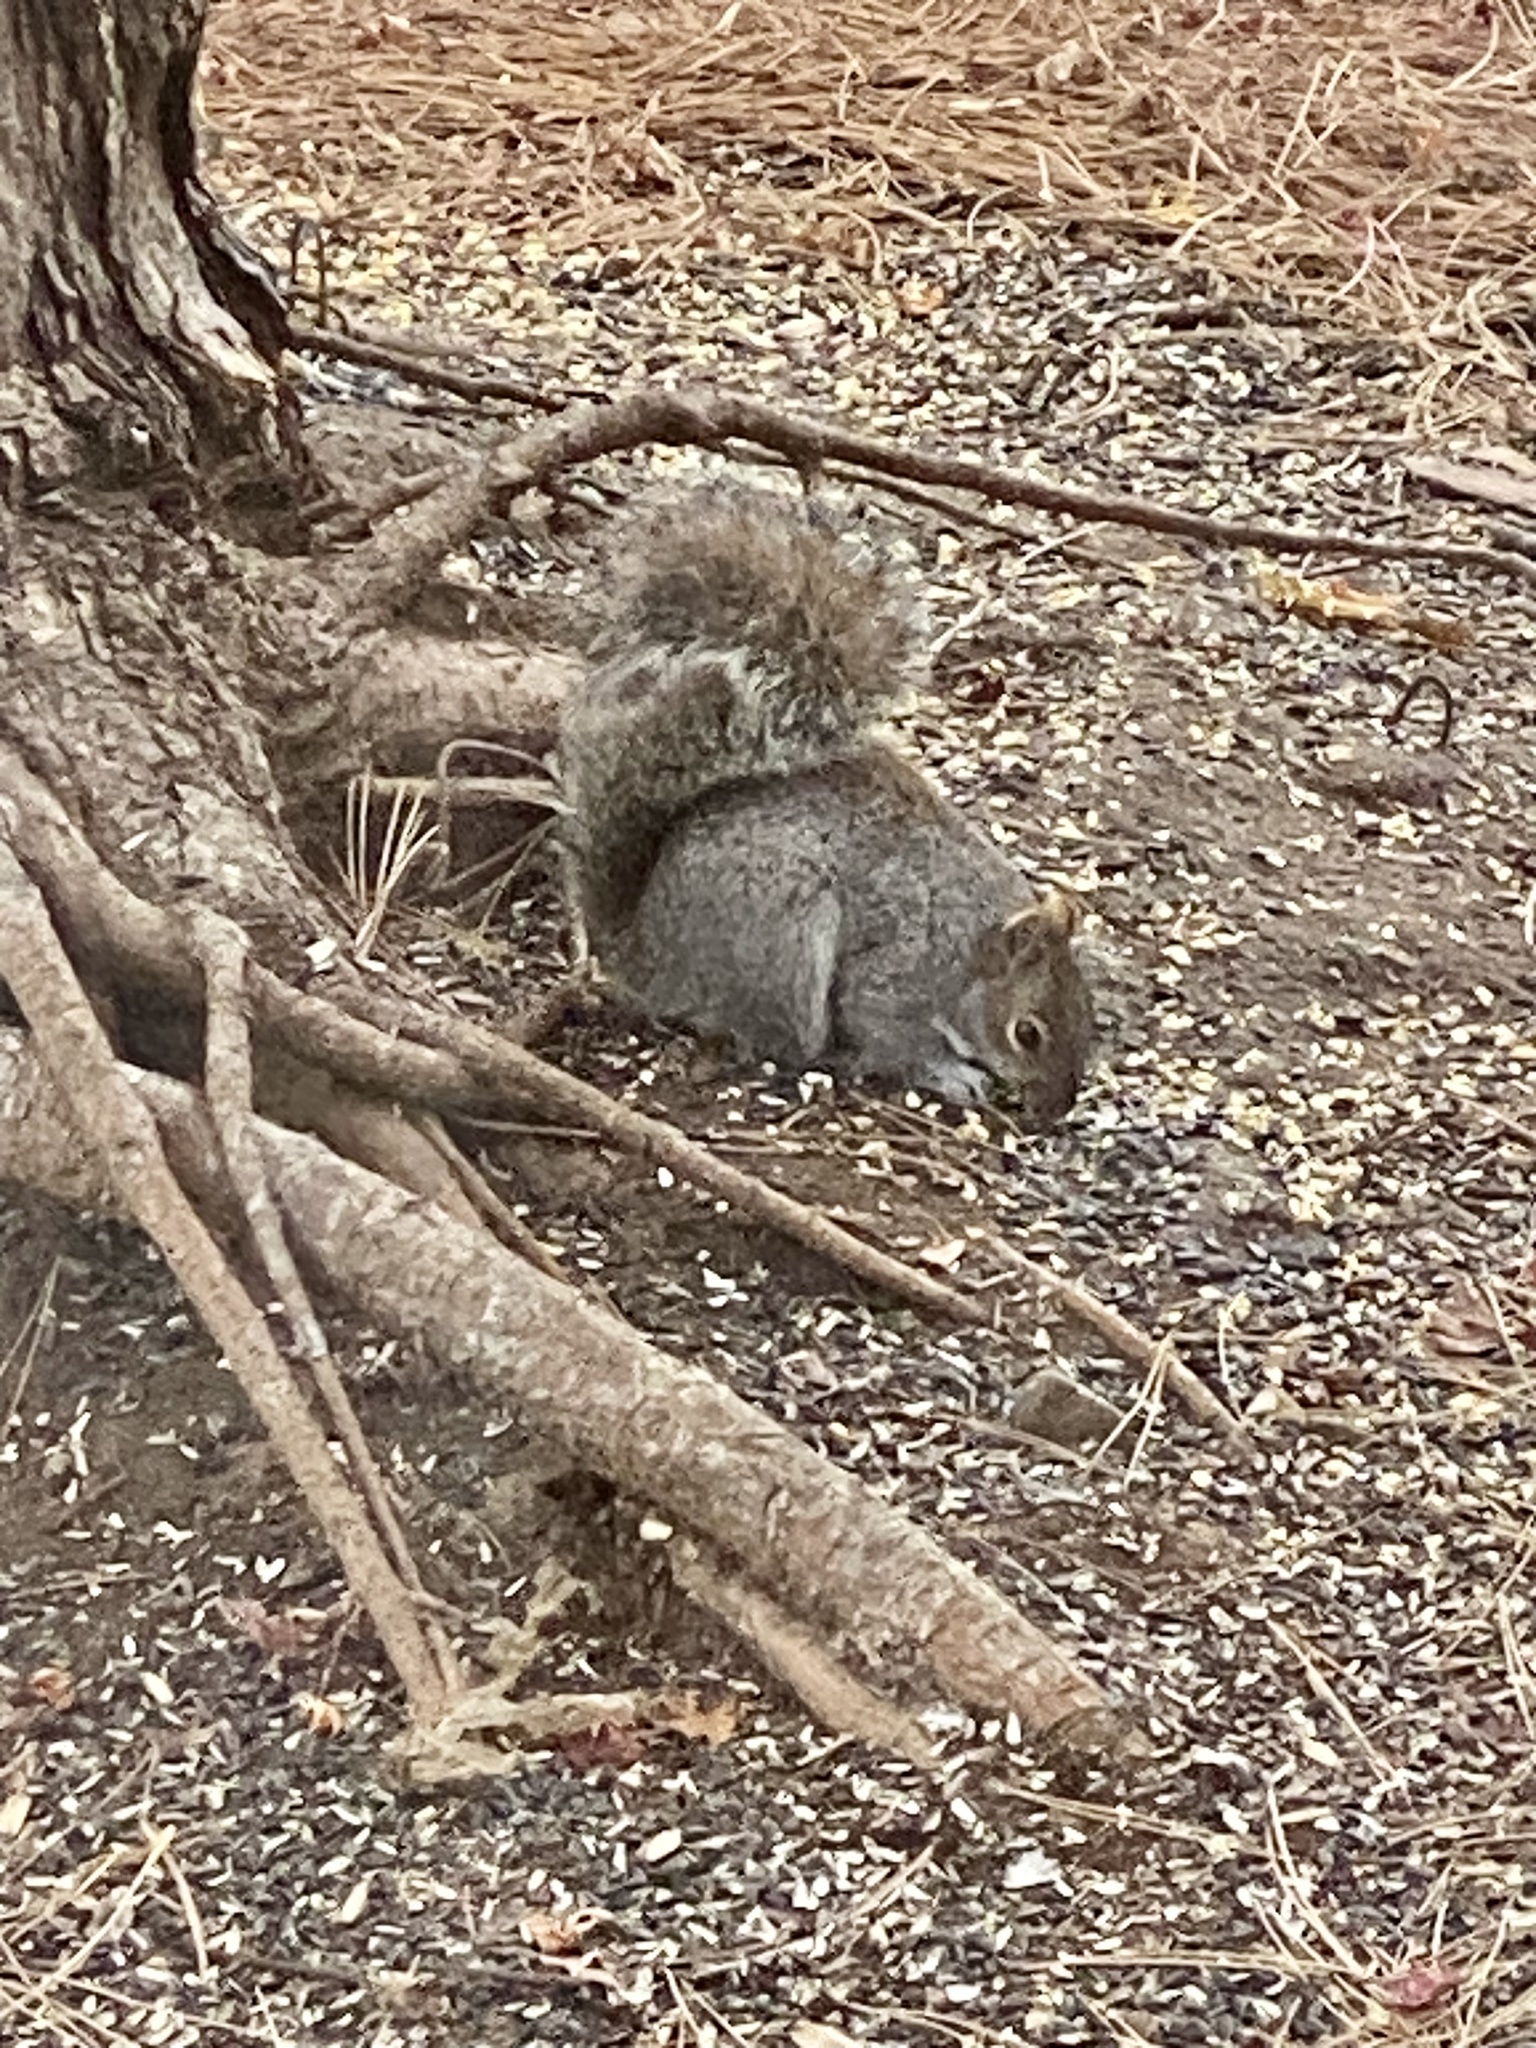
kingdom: Animalia
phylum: Chordata
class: Mammalia
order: Rodentia
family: Sciuridae
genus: Sciurus
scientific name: Sciurus carolinensis
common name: Eastern gray squirrel
